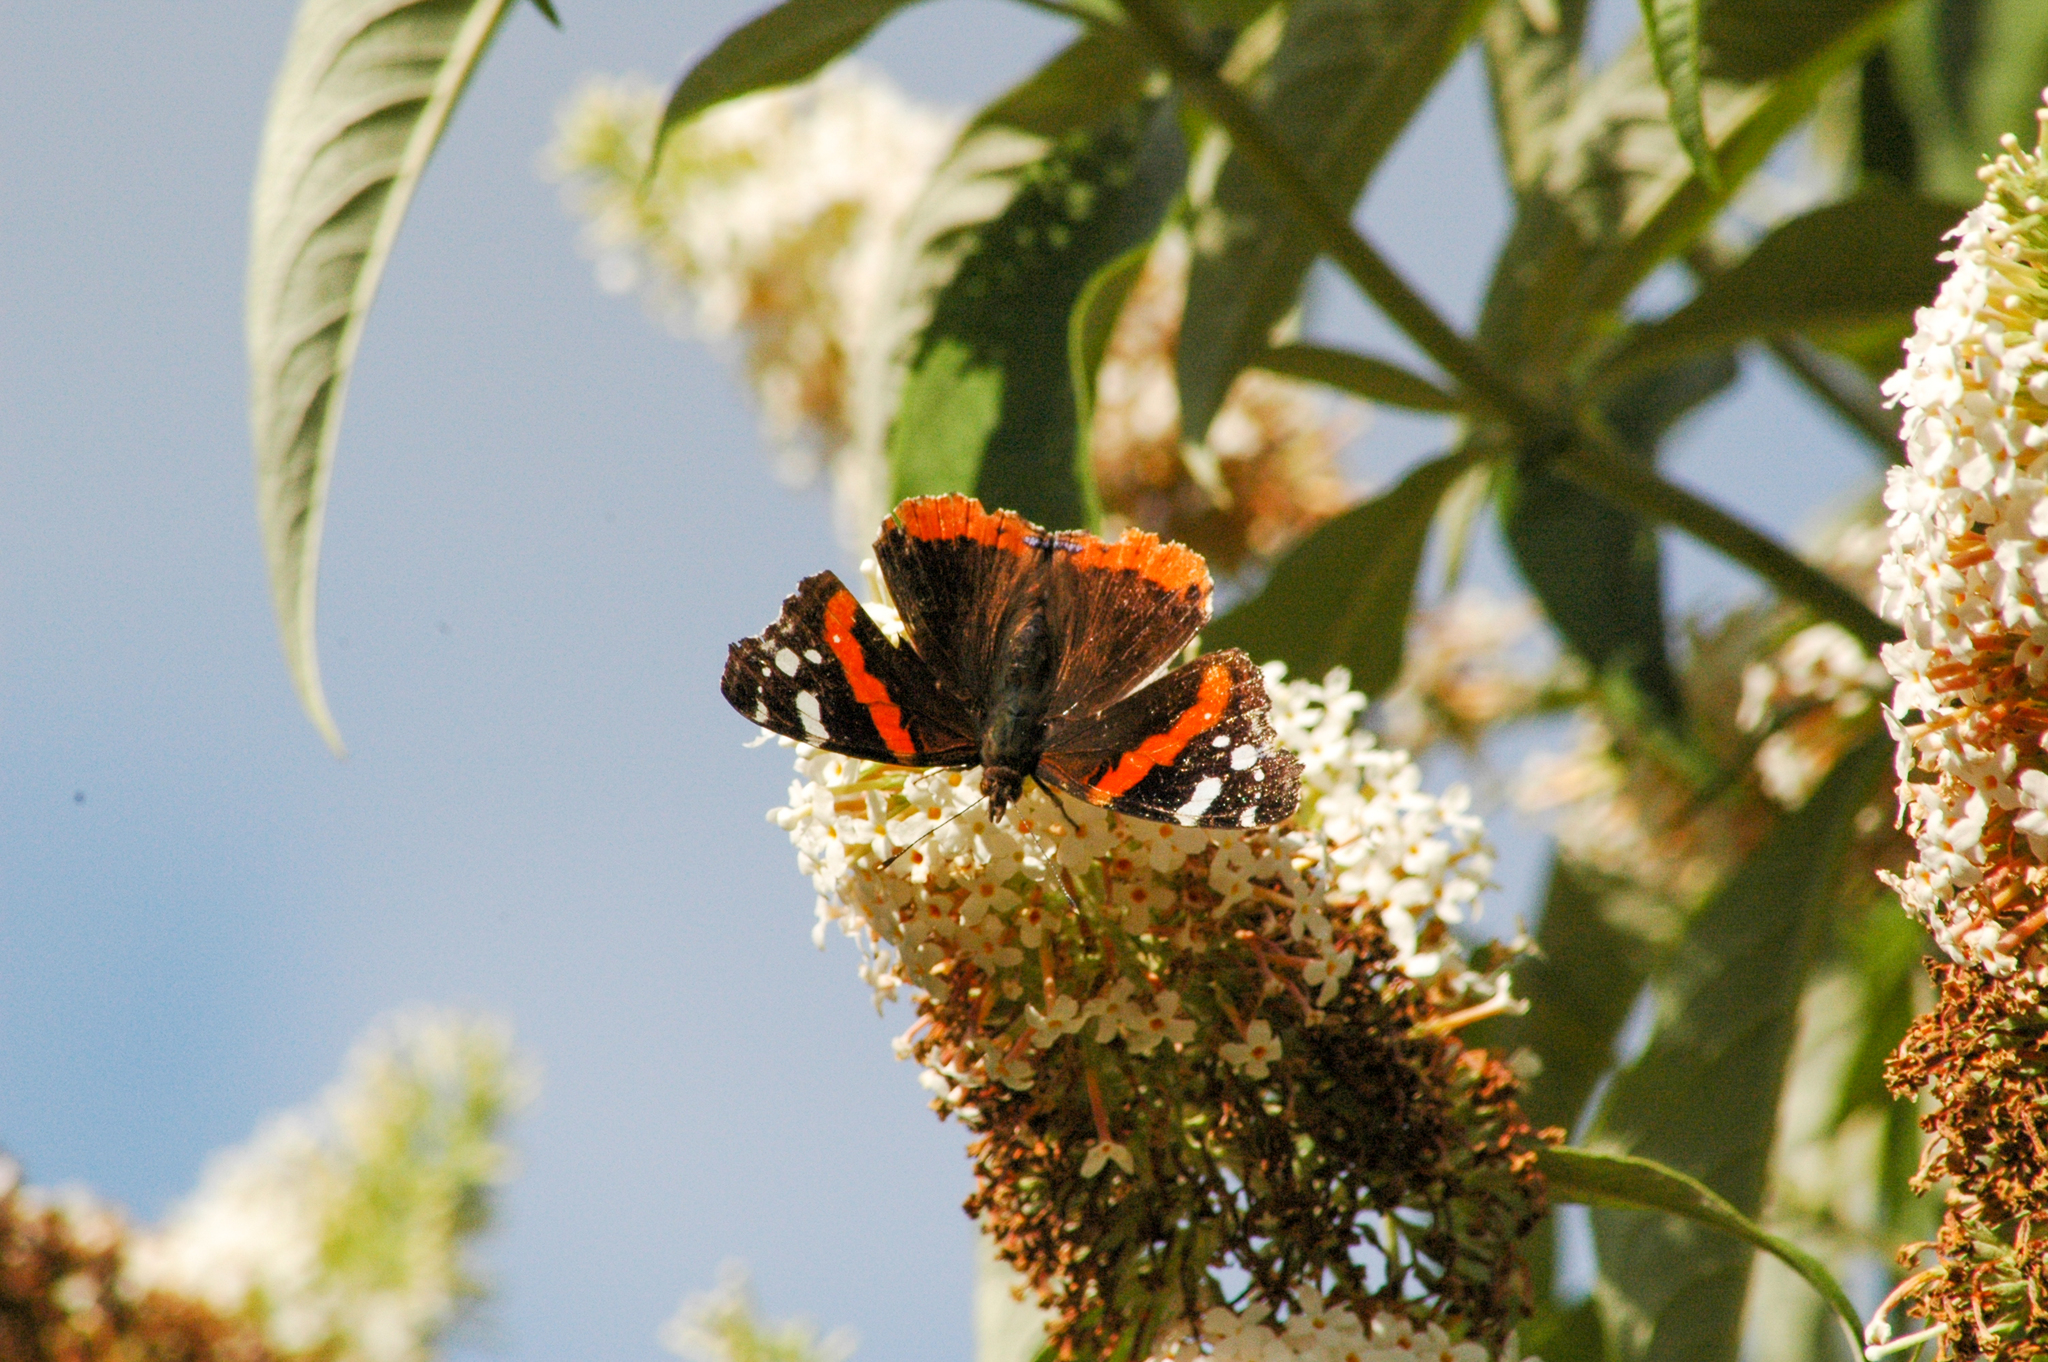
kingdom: Animalia
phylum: Arthropoda
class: Insecta
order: Lepidoptera
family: Nymphalidae
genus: Vanessa
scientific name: Vanessa atalanta
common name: Red admiral
